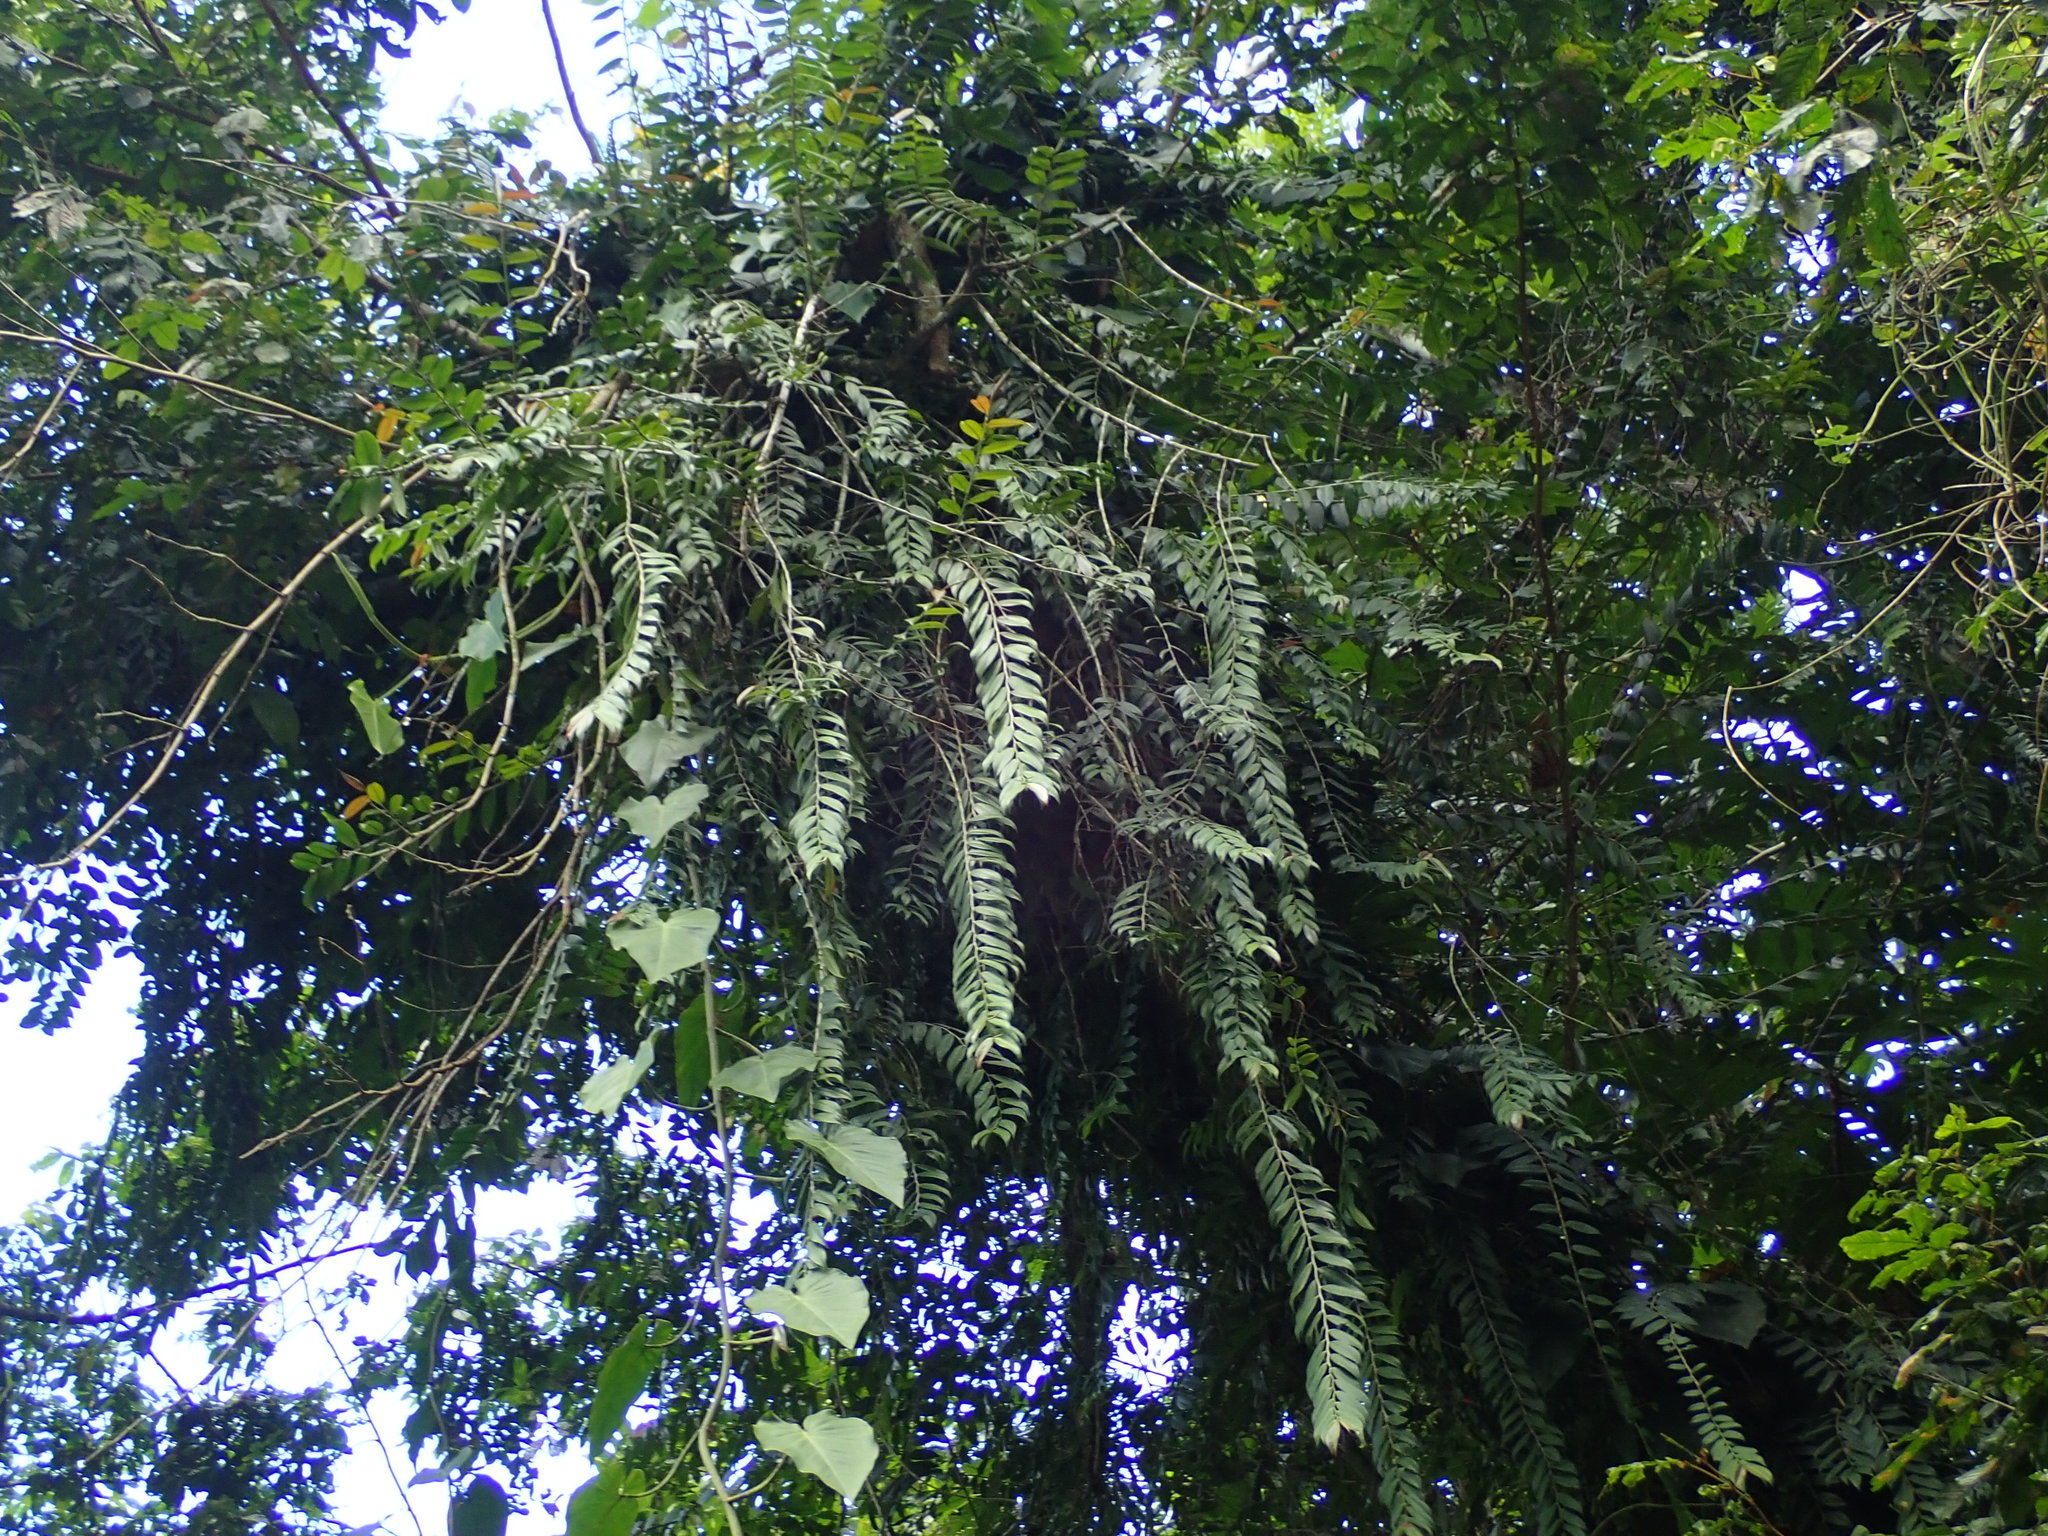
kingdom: Plantae
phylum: Tracheophyta
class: Magnoliopsida
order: Ericales
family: Marcgraviaceae
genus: Marcgravia
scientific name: Marcgravia rectiflora
